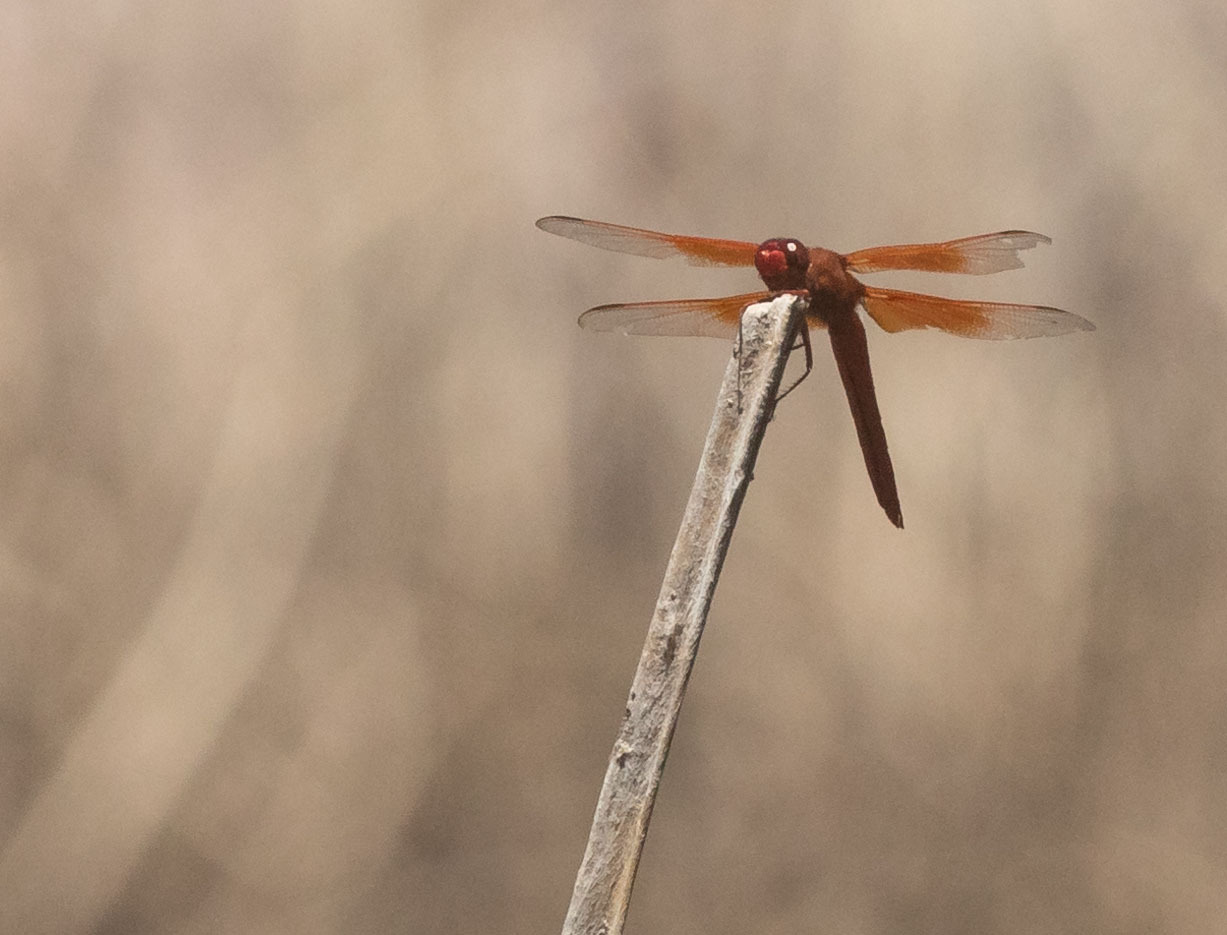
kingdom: Animalia
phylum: Arthropoda
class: Insecta
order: Odonata
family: Libellulidae
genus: Libellula
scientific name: Libellula saturata
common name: Flame skimmer
